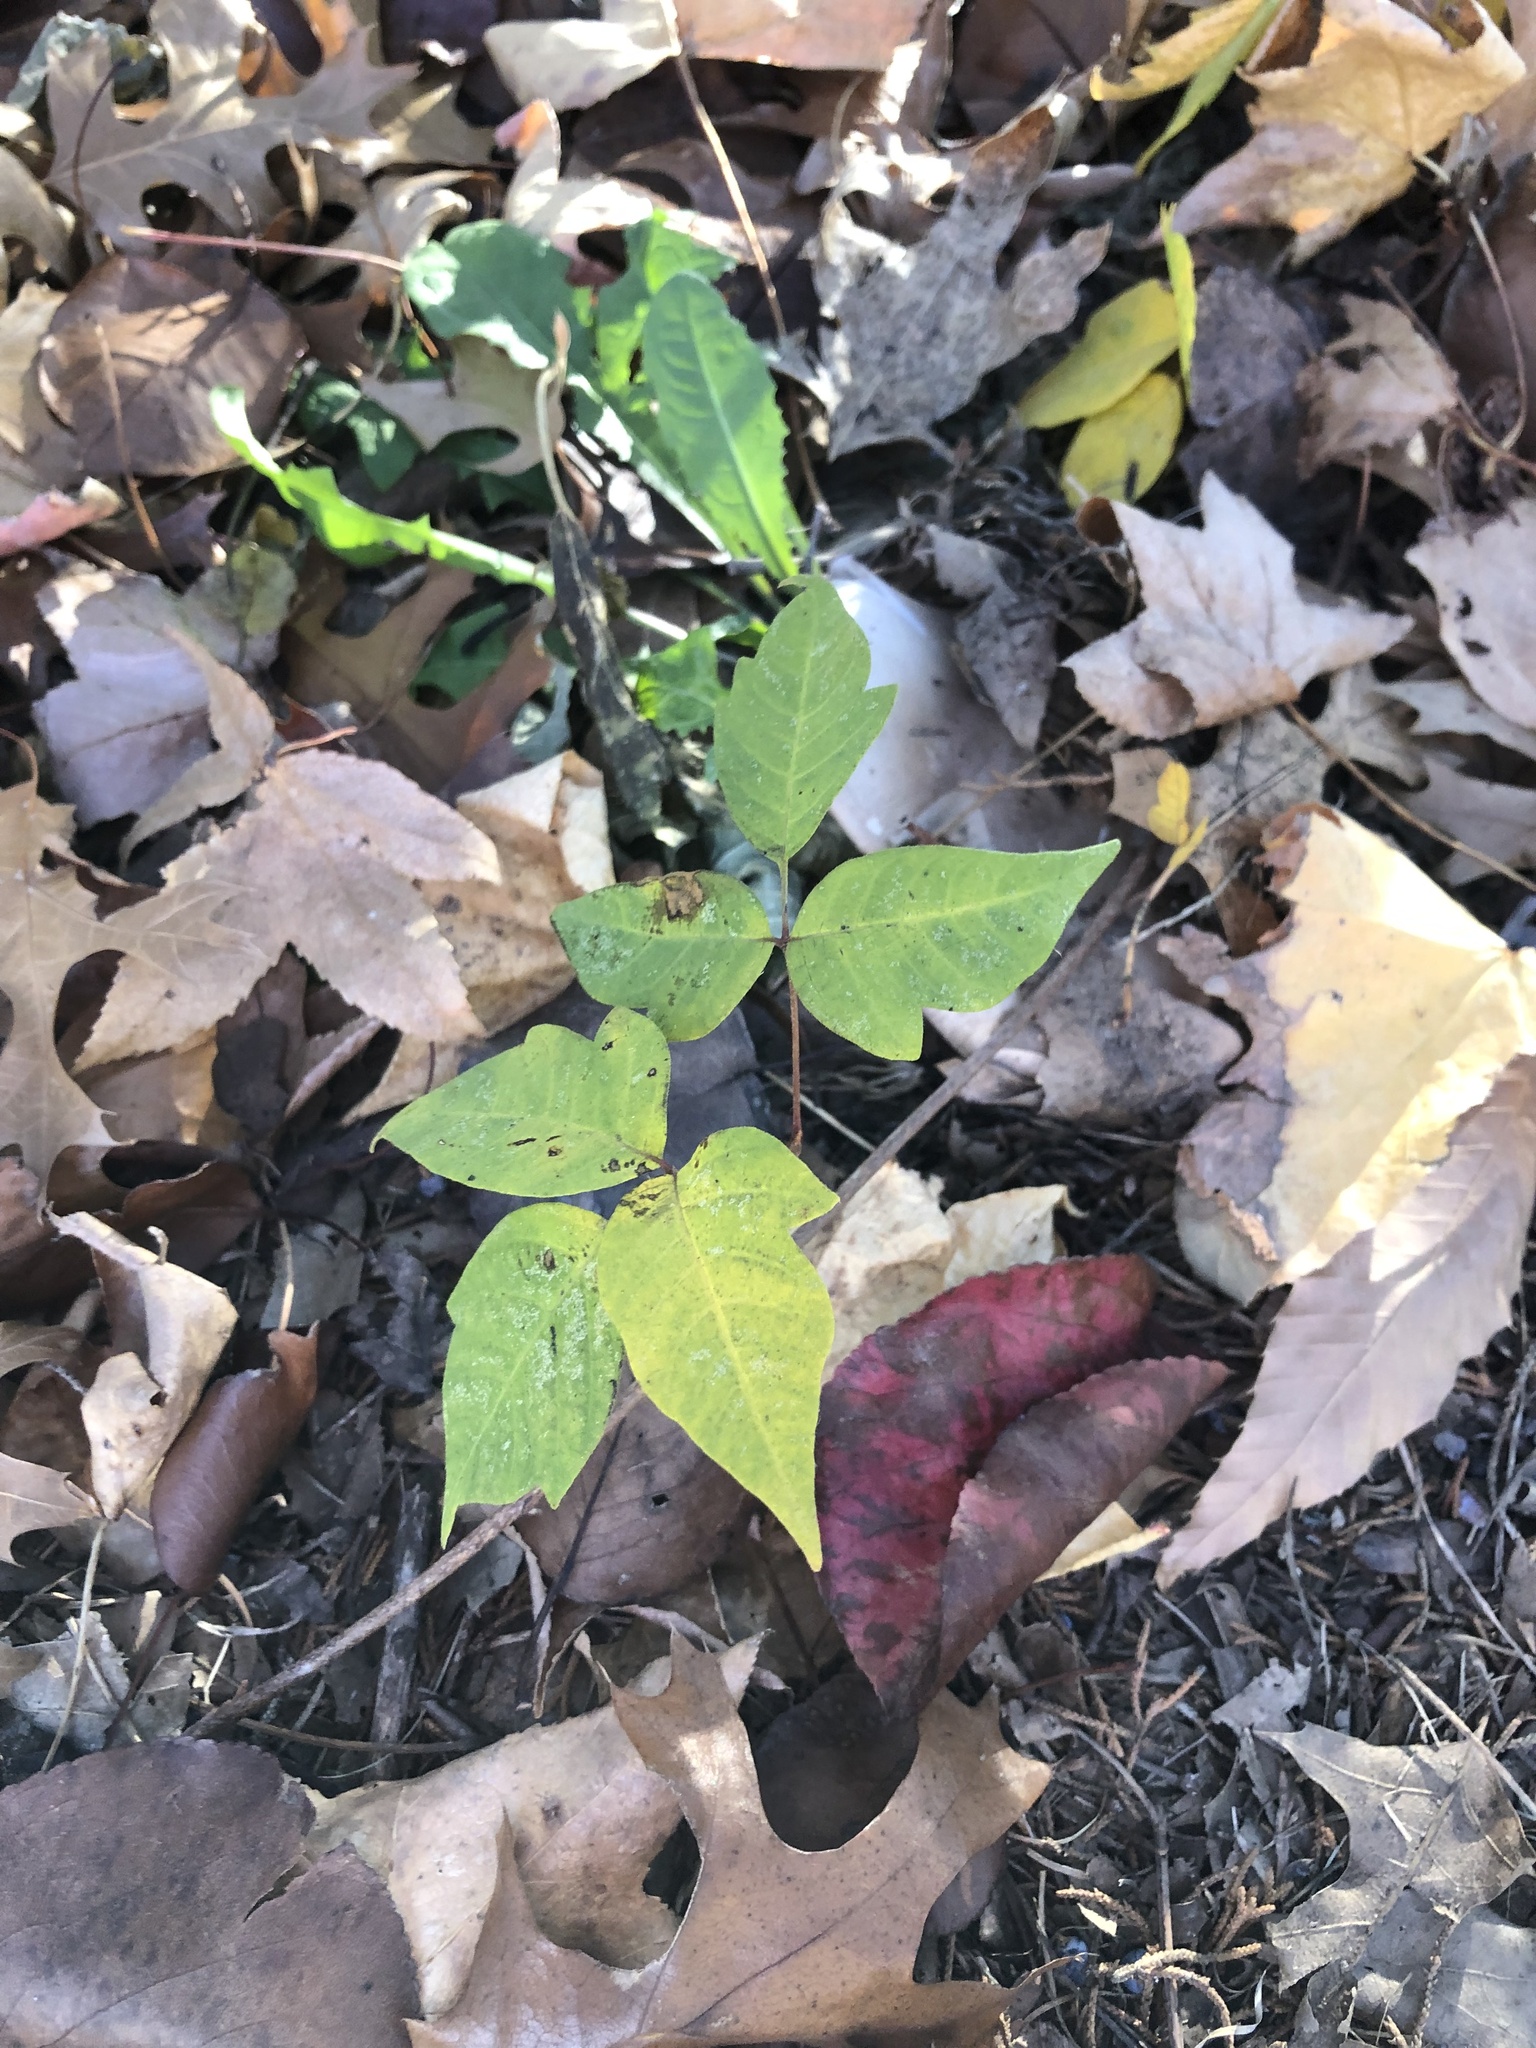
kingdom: Plantae
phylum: Tracheophyta
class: Magnoliopsida
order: Sapindales
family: Anacardiaceae
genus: Toxicodendron
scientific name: Toxicodendron radicans
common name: Poison ivy
